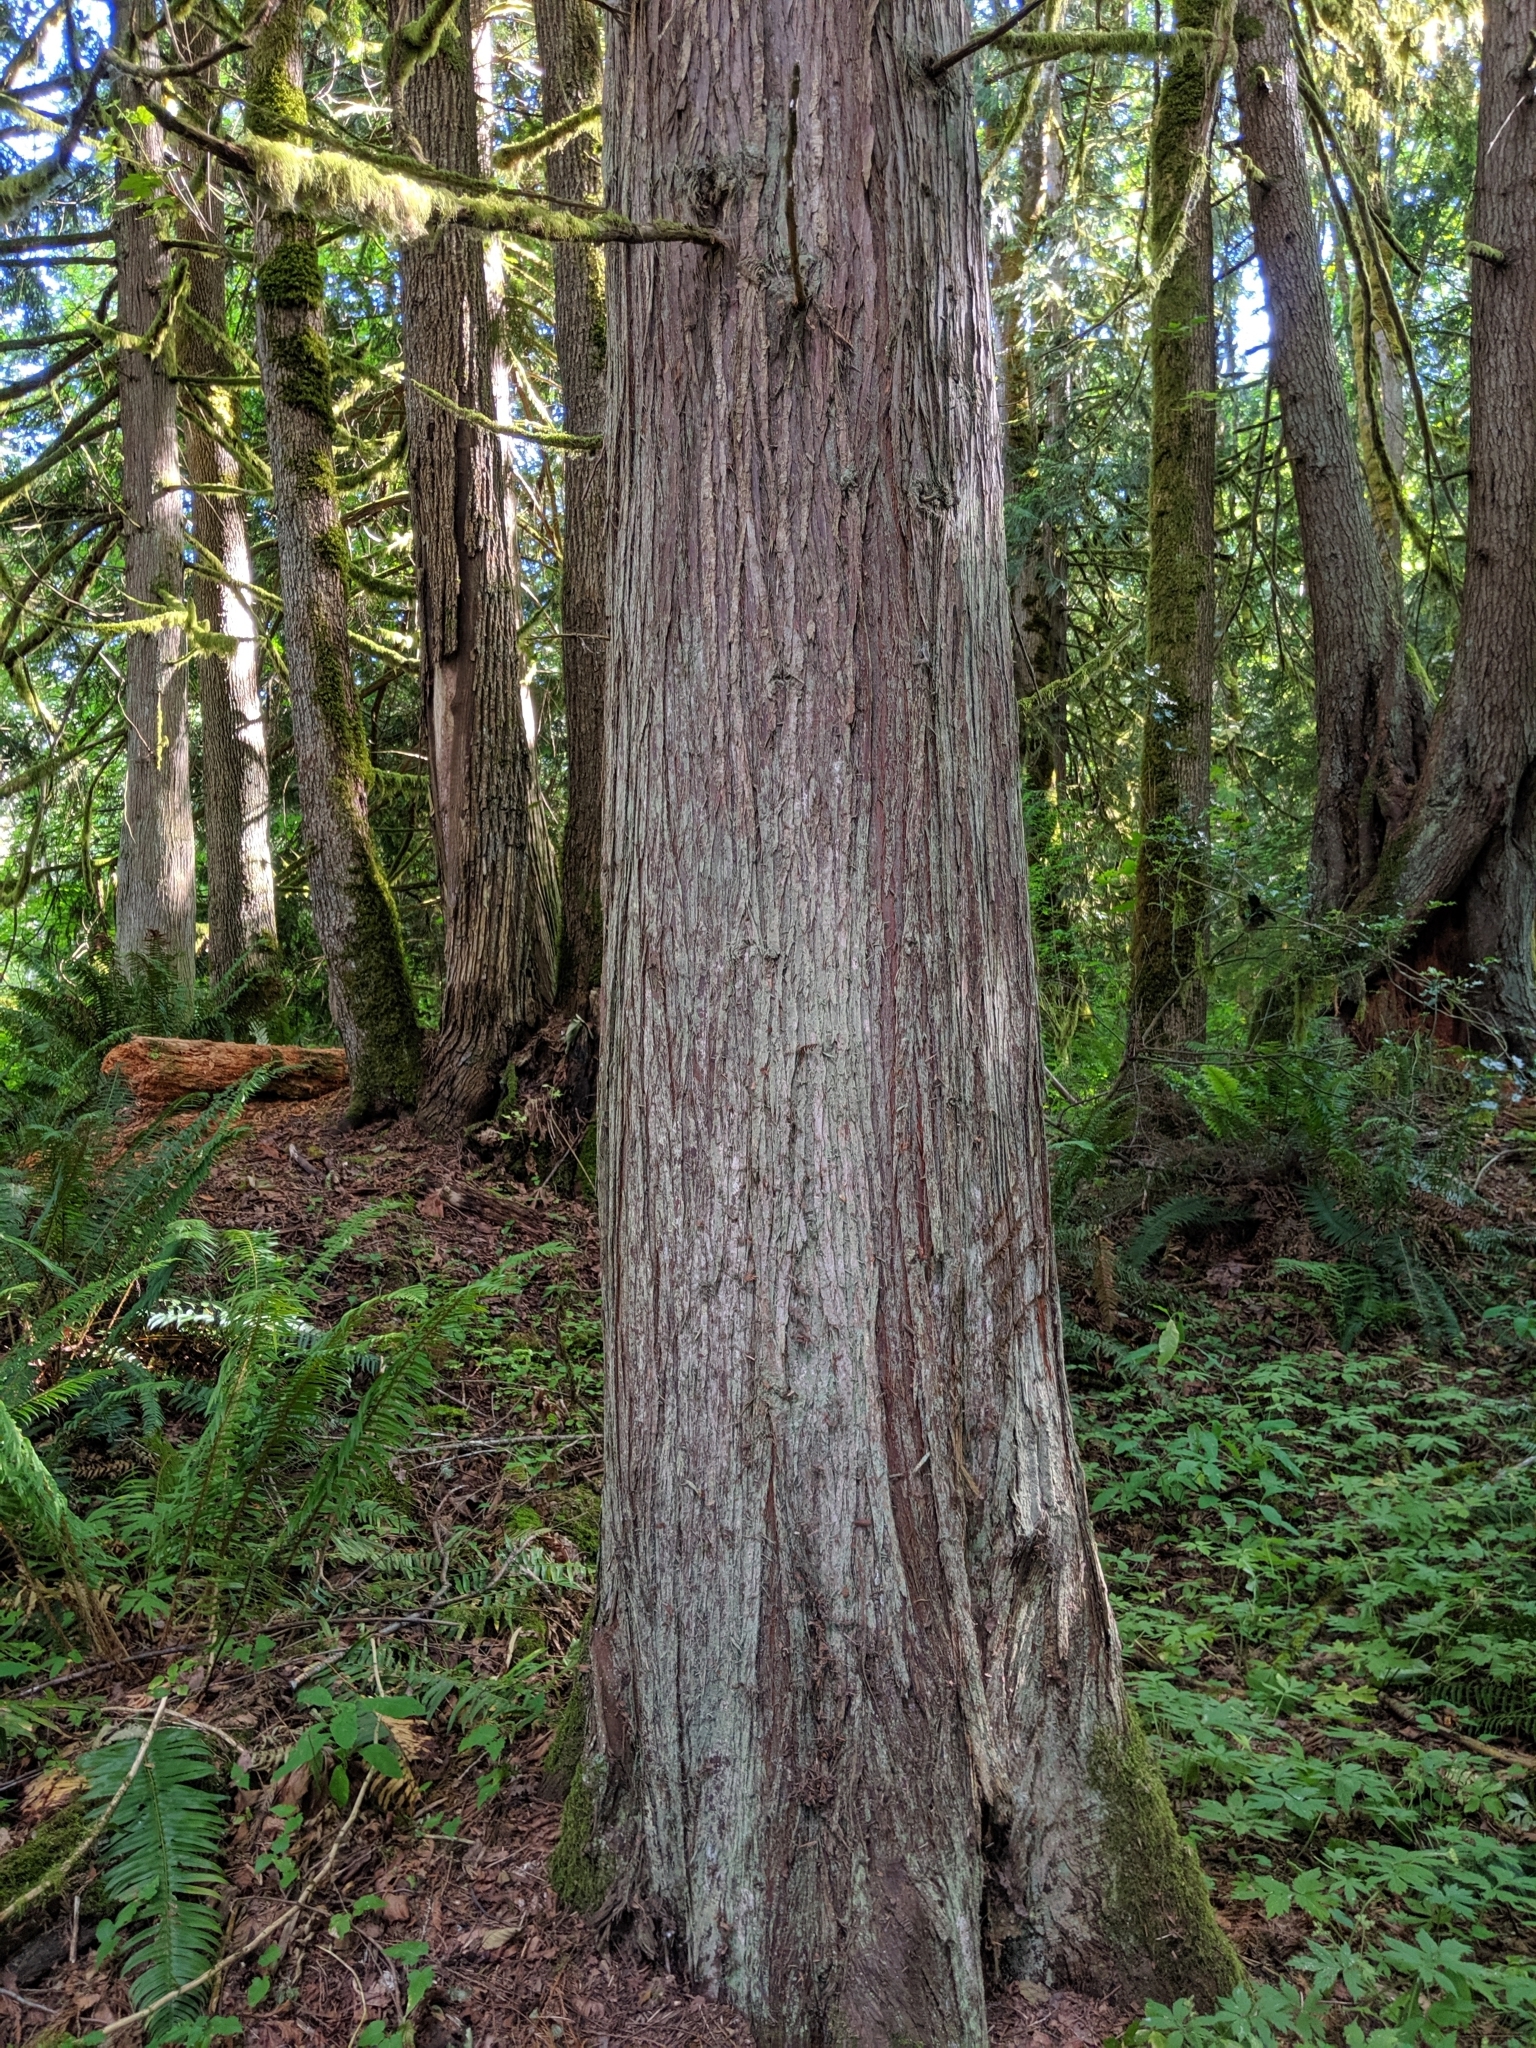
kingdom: Plantae
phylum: Tracheophyta
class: Pinopsida
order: Pinales
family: Cupressaceae
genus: Thuja
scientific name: Thuja plicata
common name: Western red-cedar
